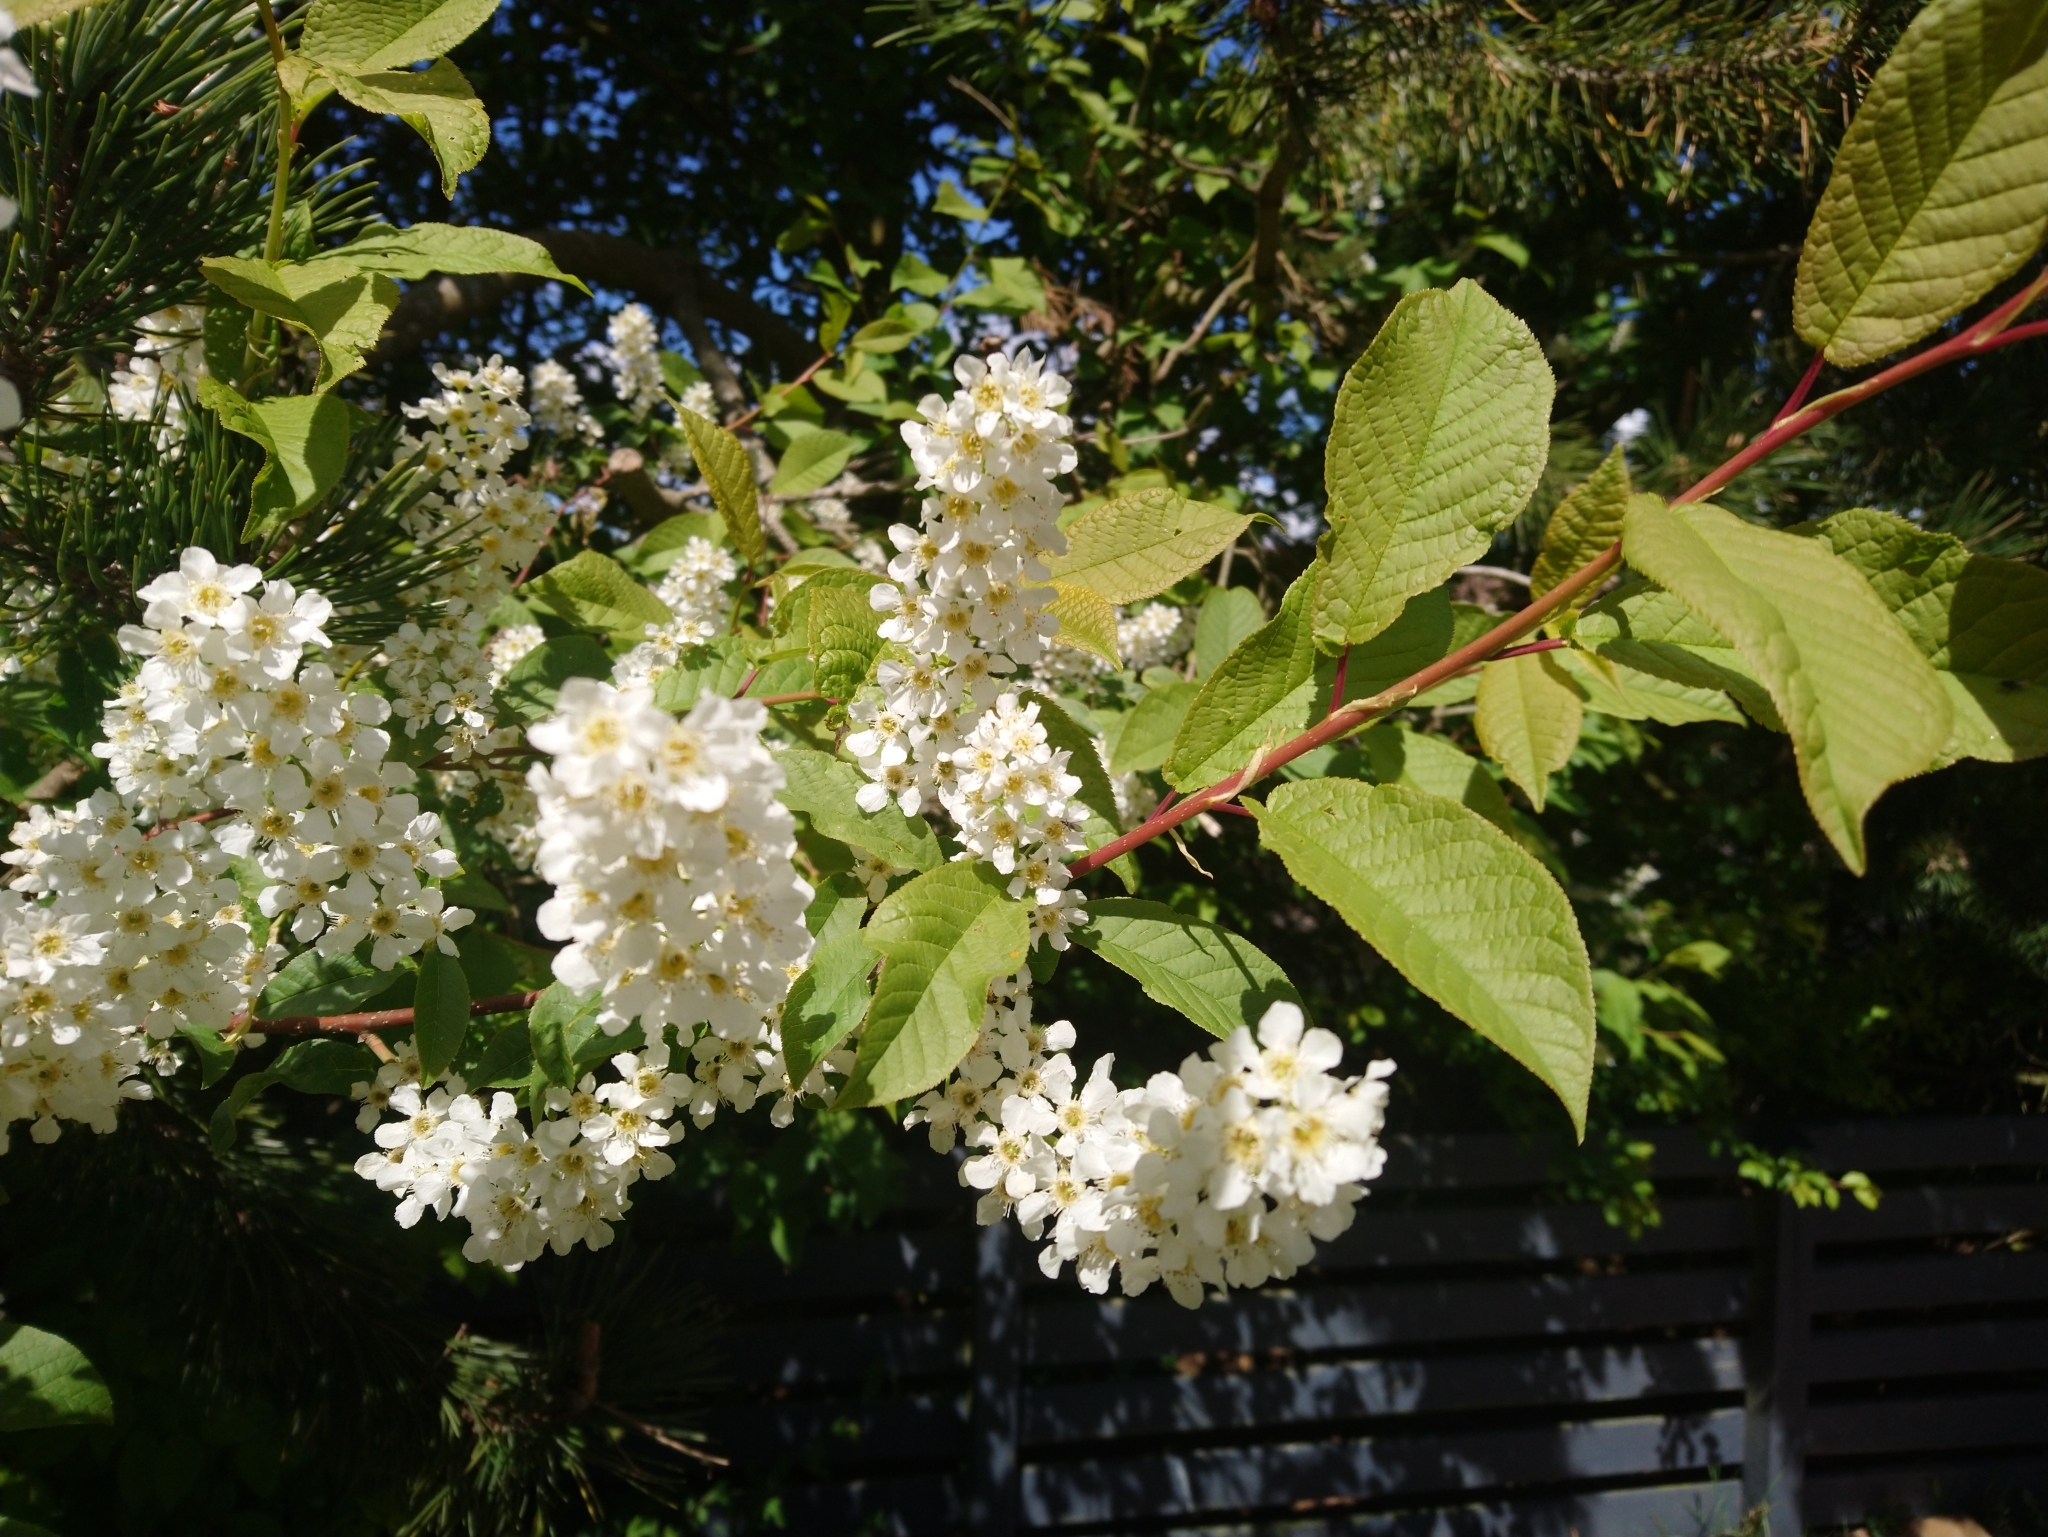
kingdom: Plantae
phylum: Tracheophyta
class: Magnoliopsida
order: Rosales
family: Rosaceae
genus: Prunus
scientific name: Prunus padus
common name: Bird cherry
